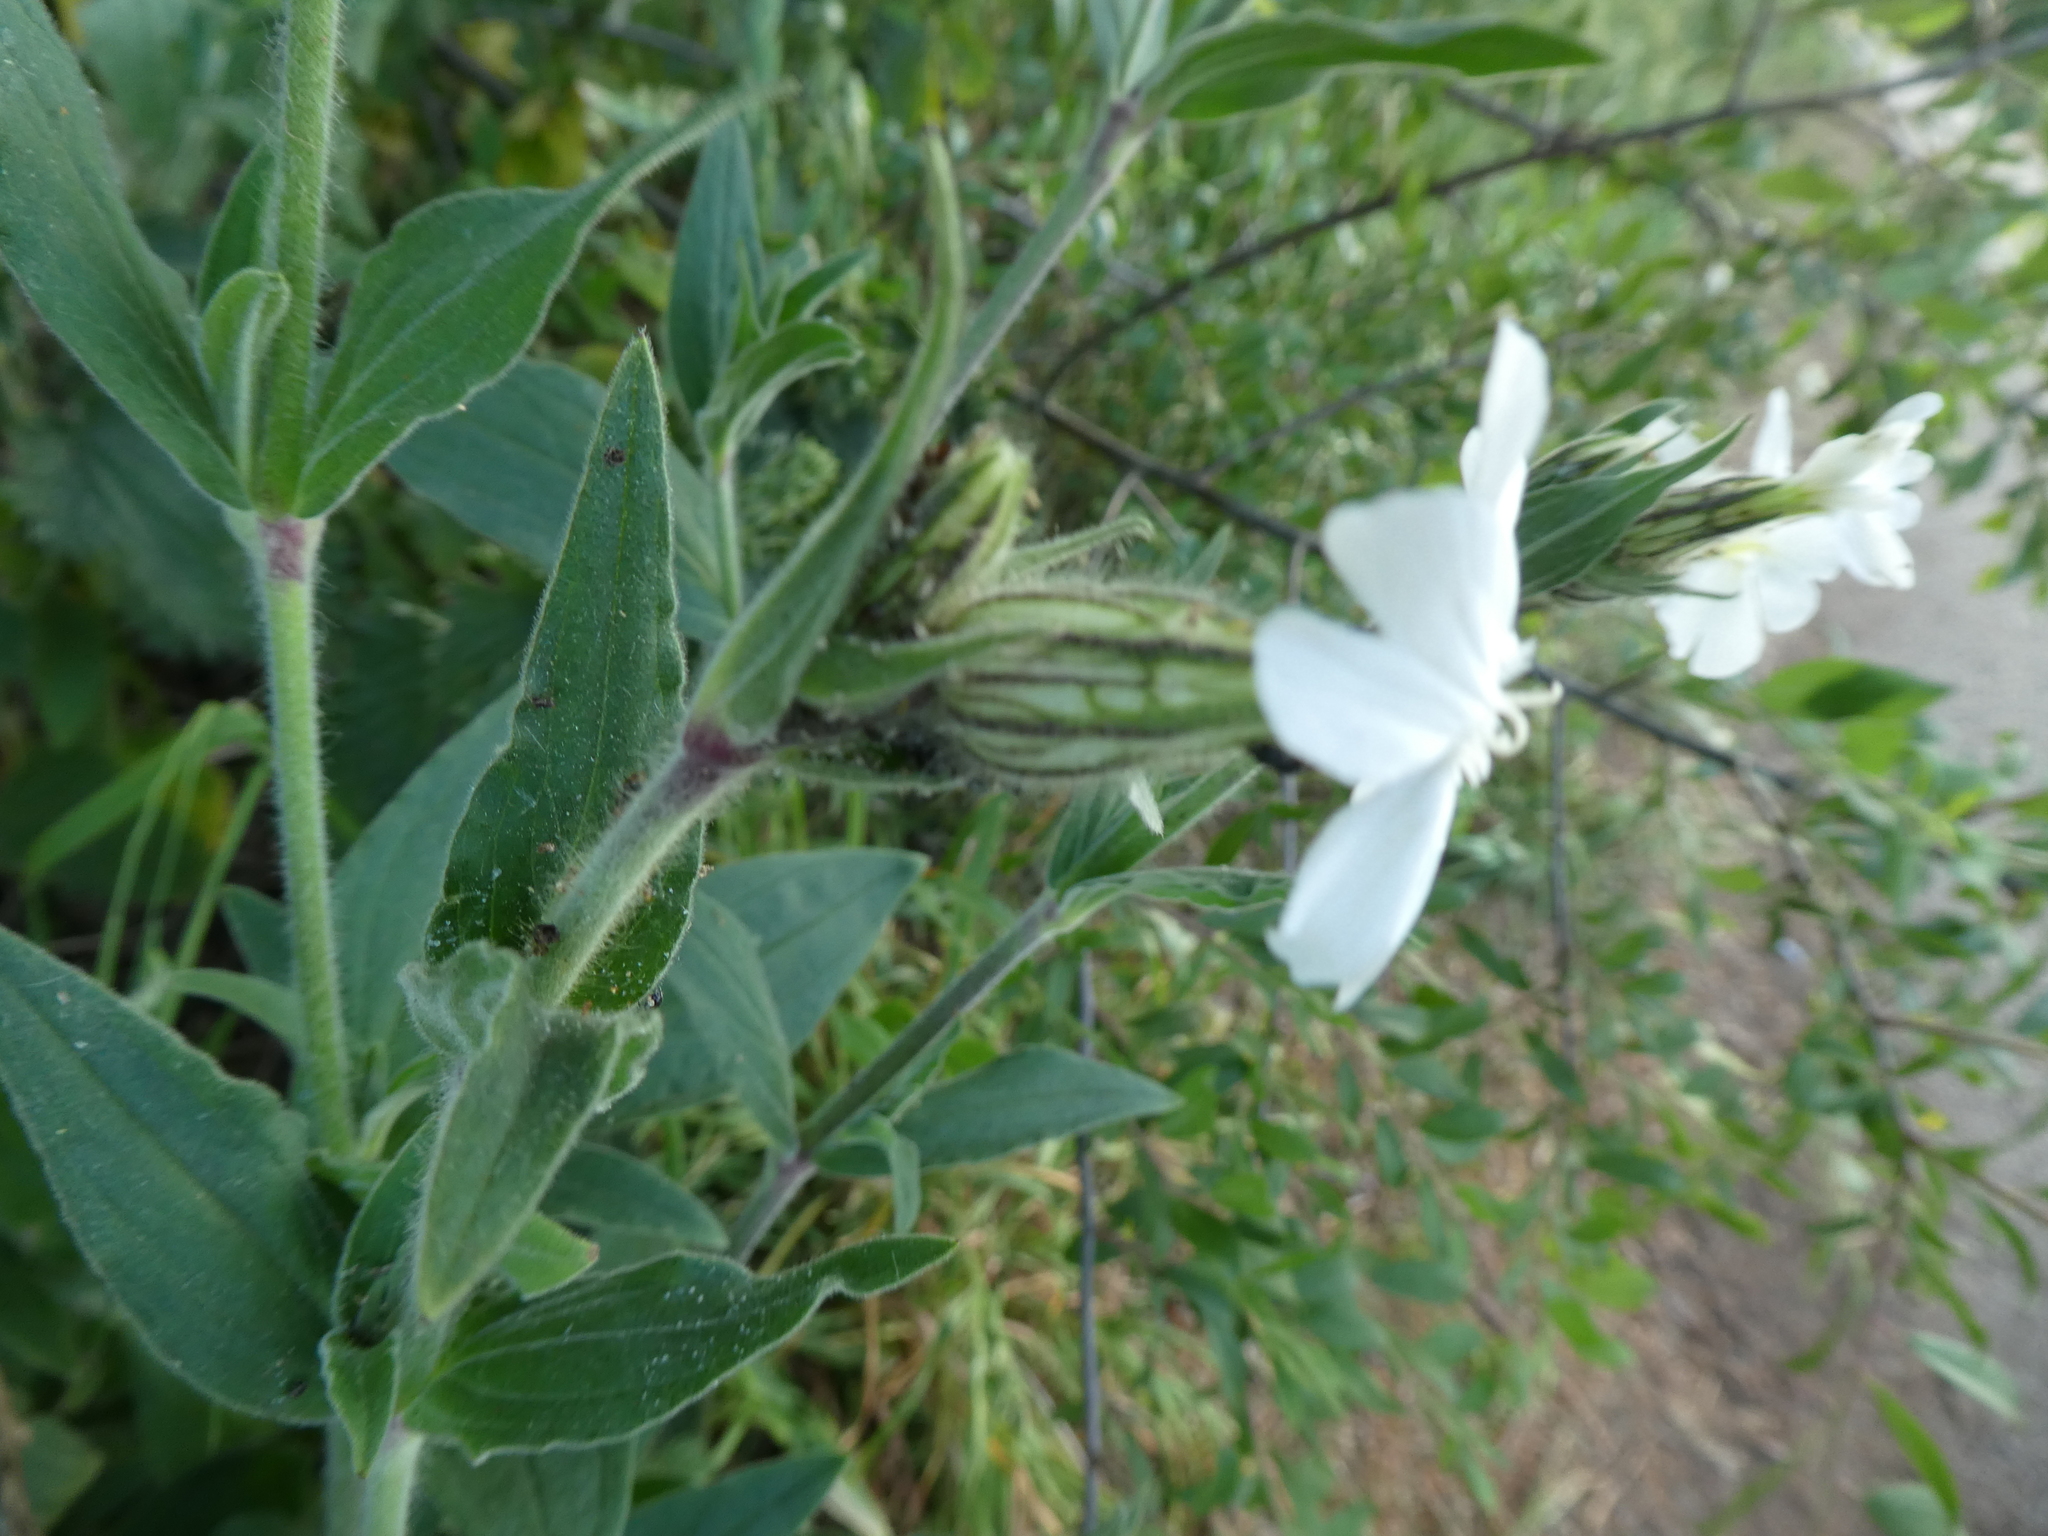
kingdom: Plantae
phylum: Tracheophyta
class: Magnoliopsida
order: Caryophyllales
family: Caryophyllaceae
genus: Silene
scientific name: Silene latifolia
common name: White campion
